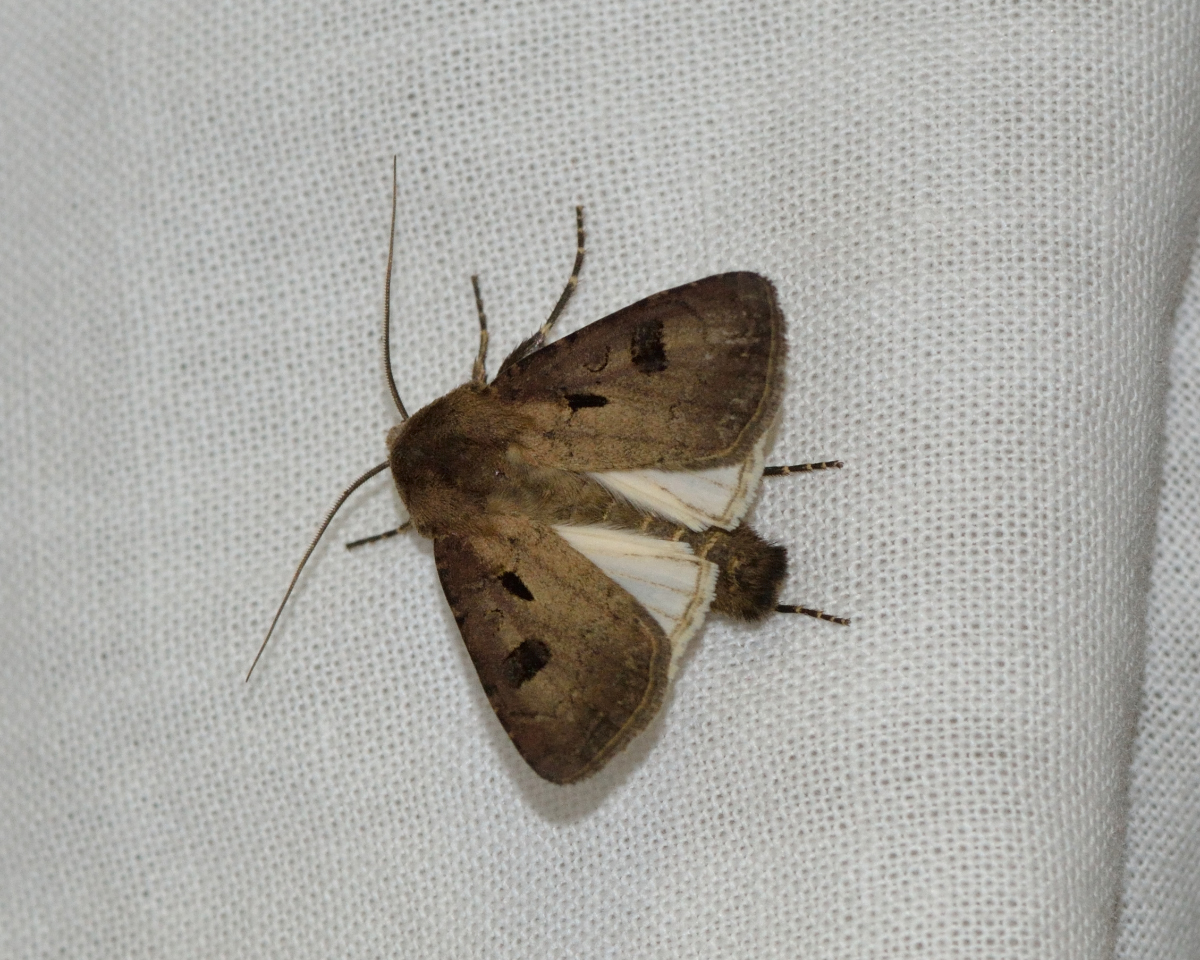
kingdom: Animalia
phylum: Arthropoda
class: Insecta
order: Lepidoptera
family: Noctuidae
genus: Agrotis
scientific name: Agrotis exclamationis
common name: Heart and dart
